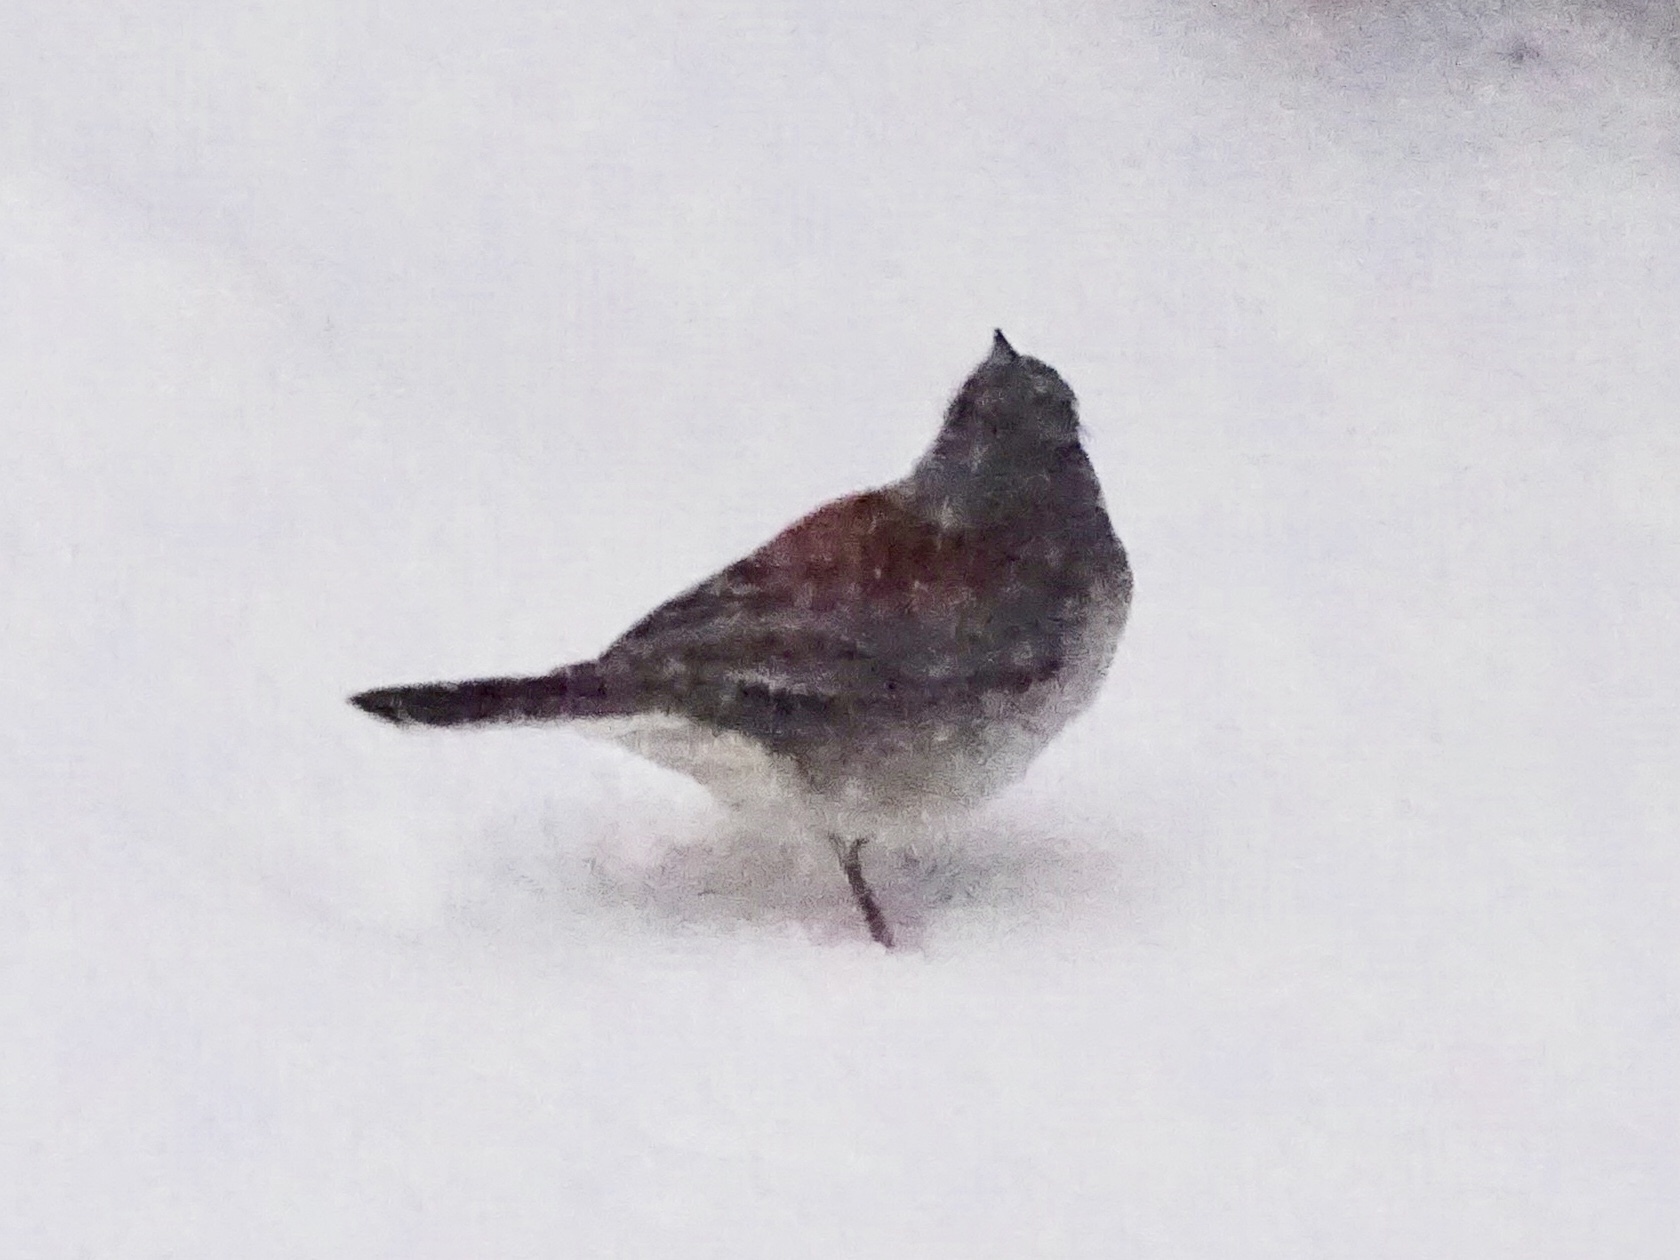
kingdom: Animalia
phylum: Chordata
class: Aves
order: Passeriformes
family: Passerellidae
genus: Junco
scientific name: Junco hyemalis
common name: Dark-eyed junco
